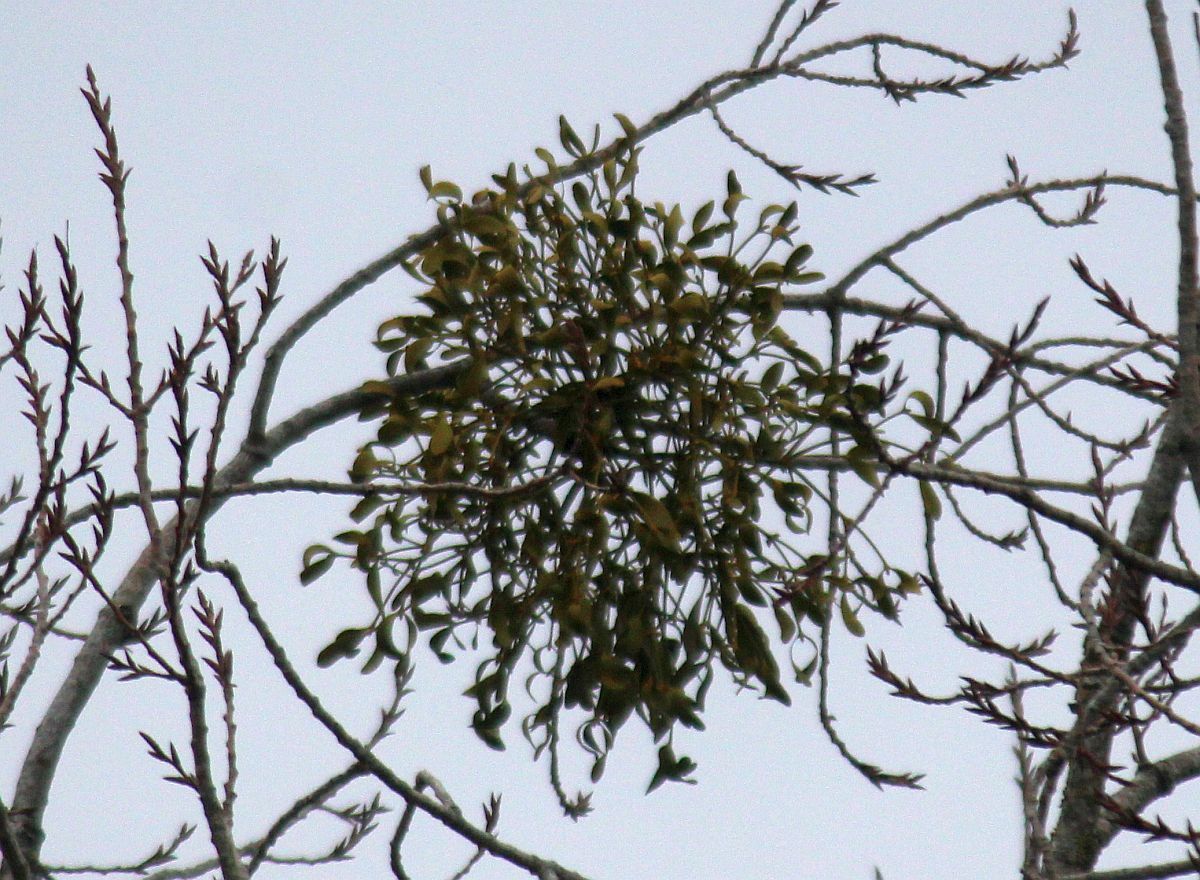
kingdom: Plantae
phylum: Tracheophyta
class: Magnoliopsida
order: Santalales
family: Viscaceae
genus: Viscum
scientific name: Viscum album
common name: Mistletoe
